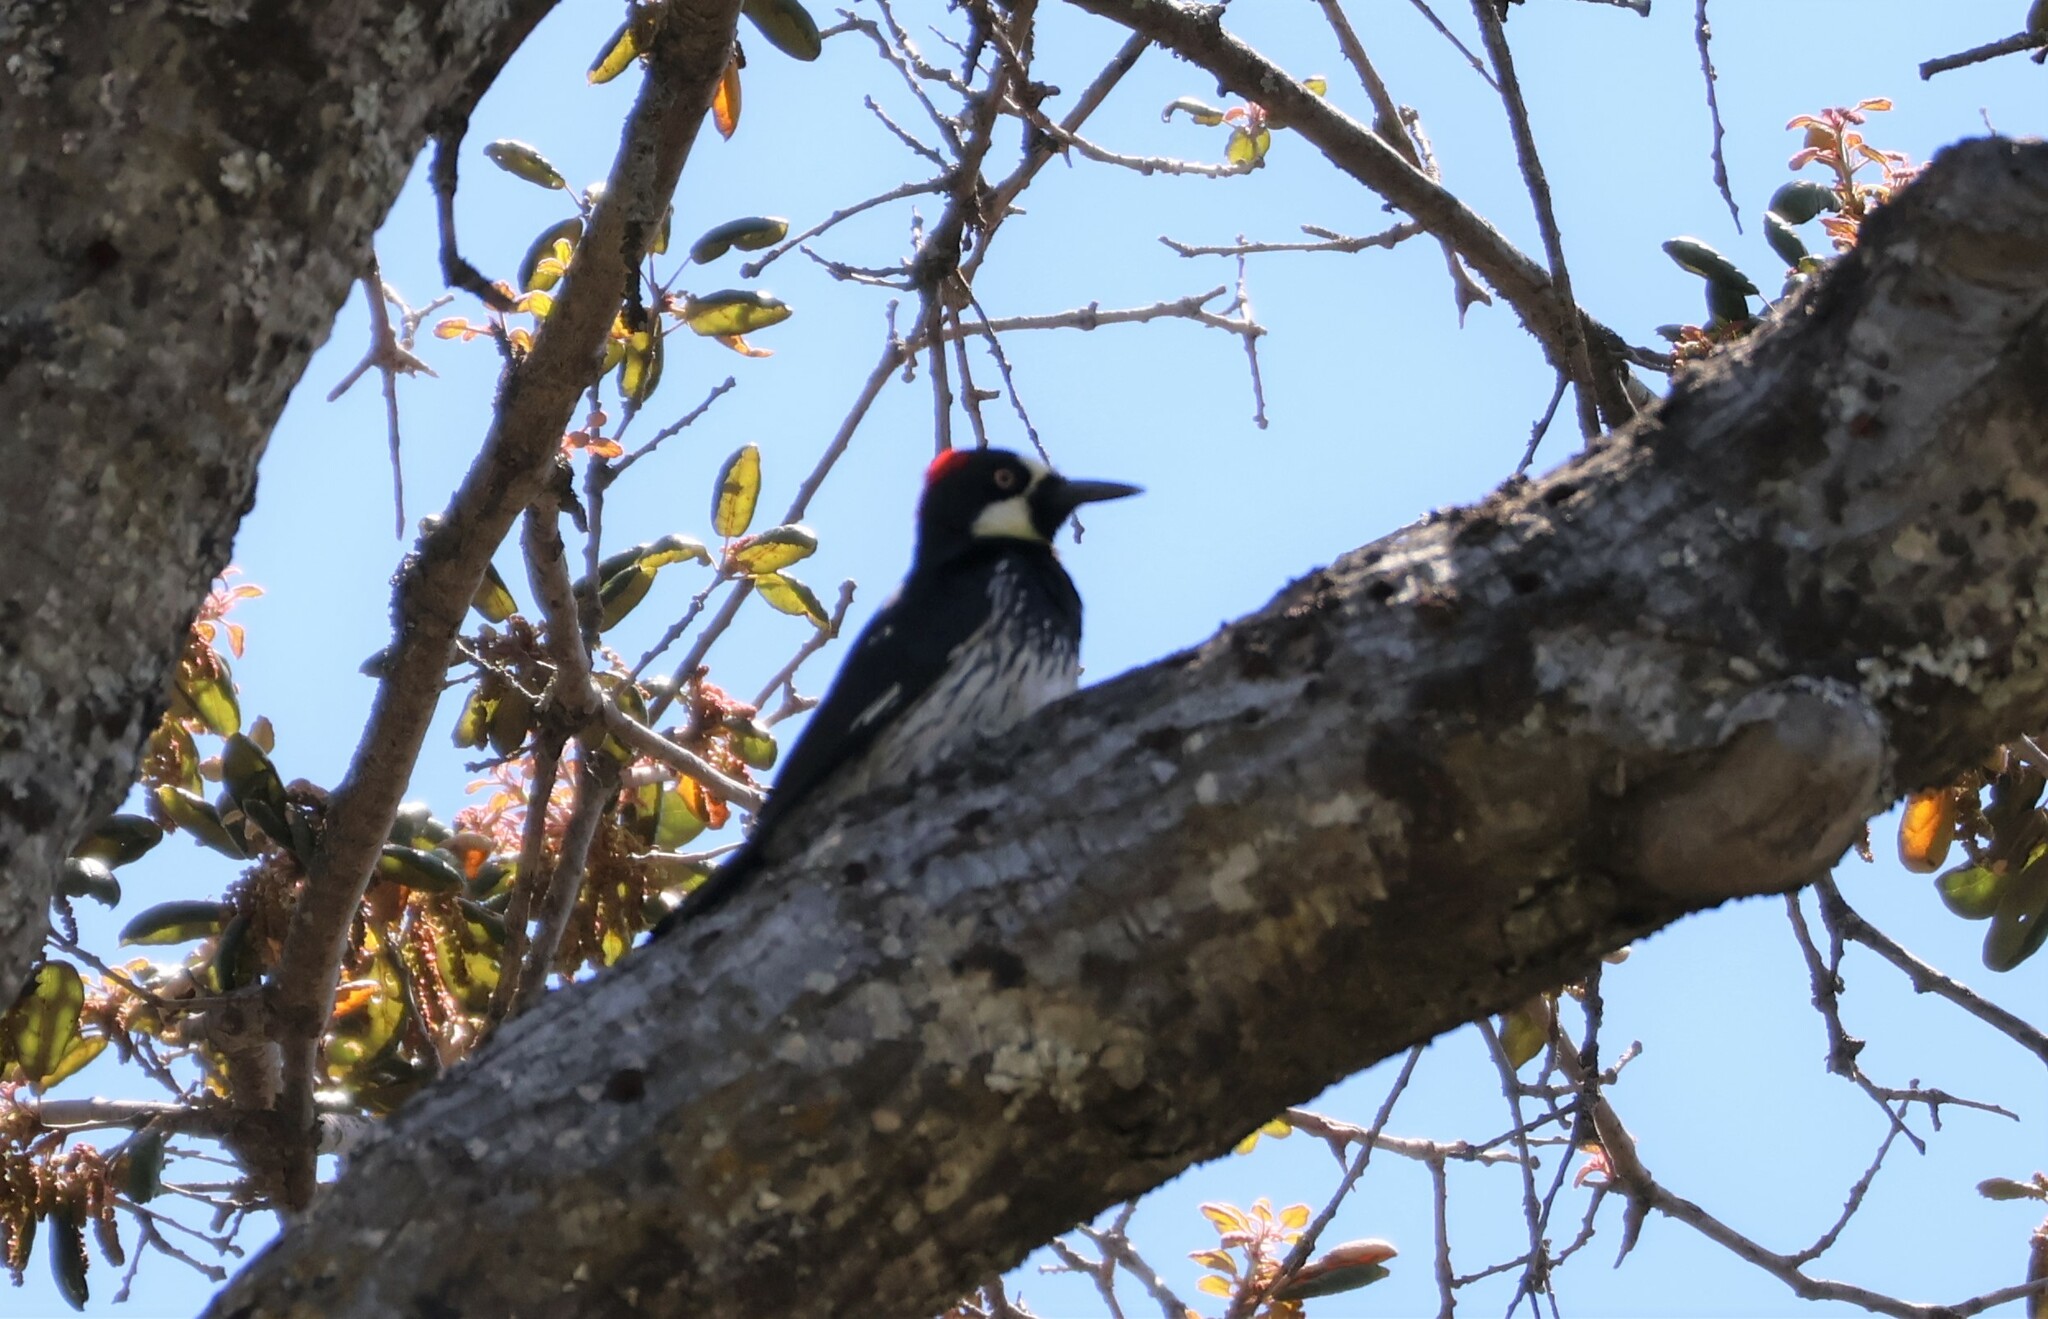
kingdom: Animalia
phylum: Chordata
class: Aves
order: Piciformes
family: Picidae
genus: Melanerpes
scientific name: Melanerpes formicivorus
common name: Acorn woodpecker
